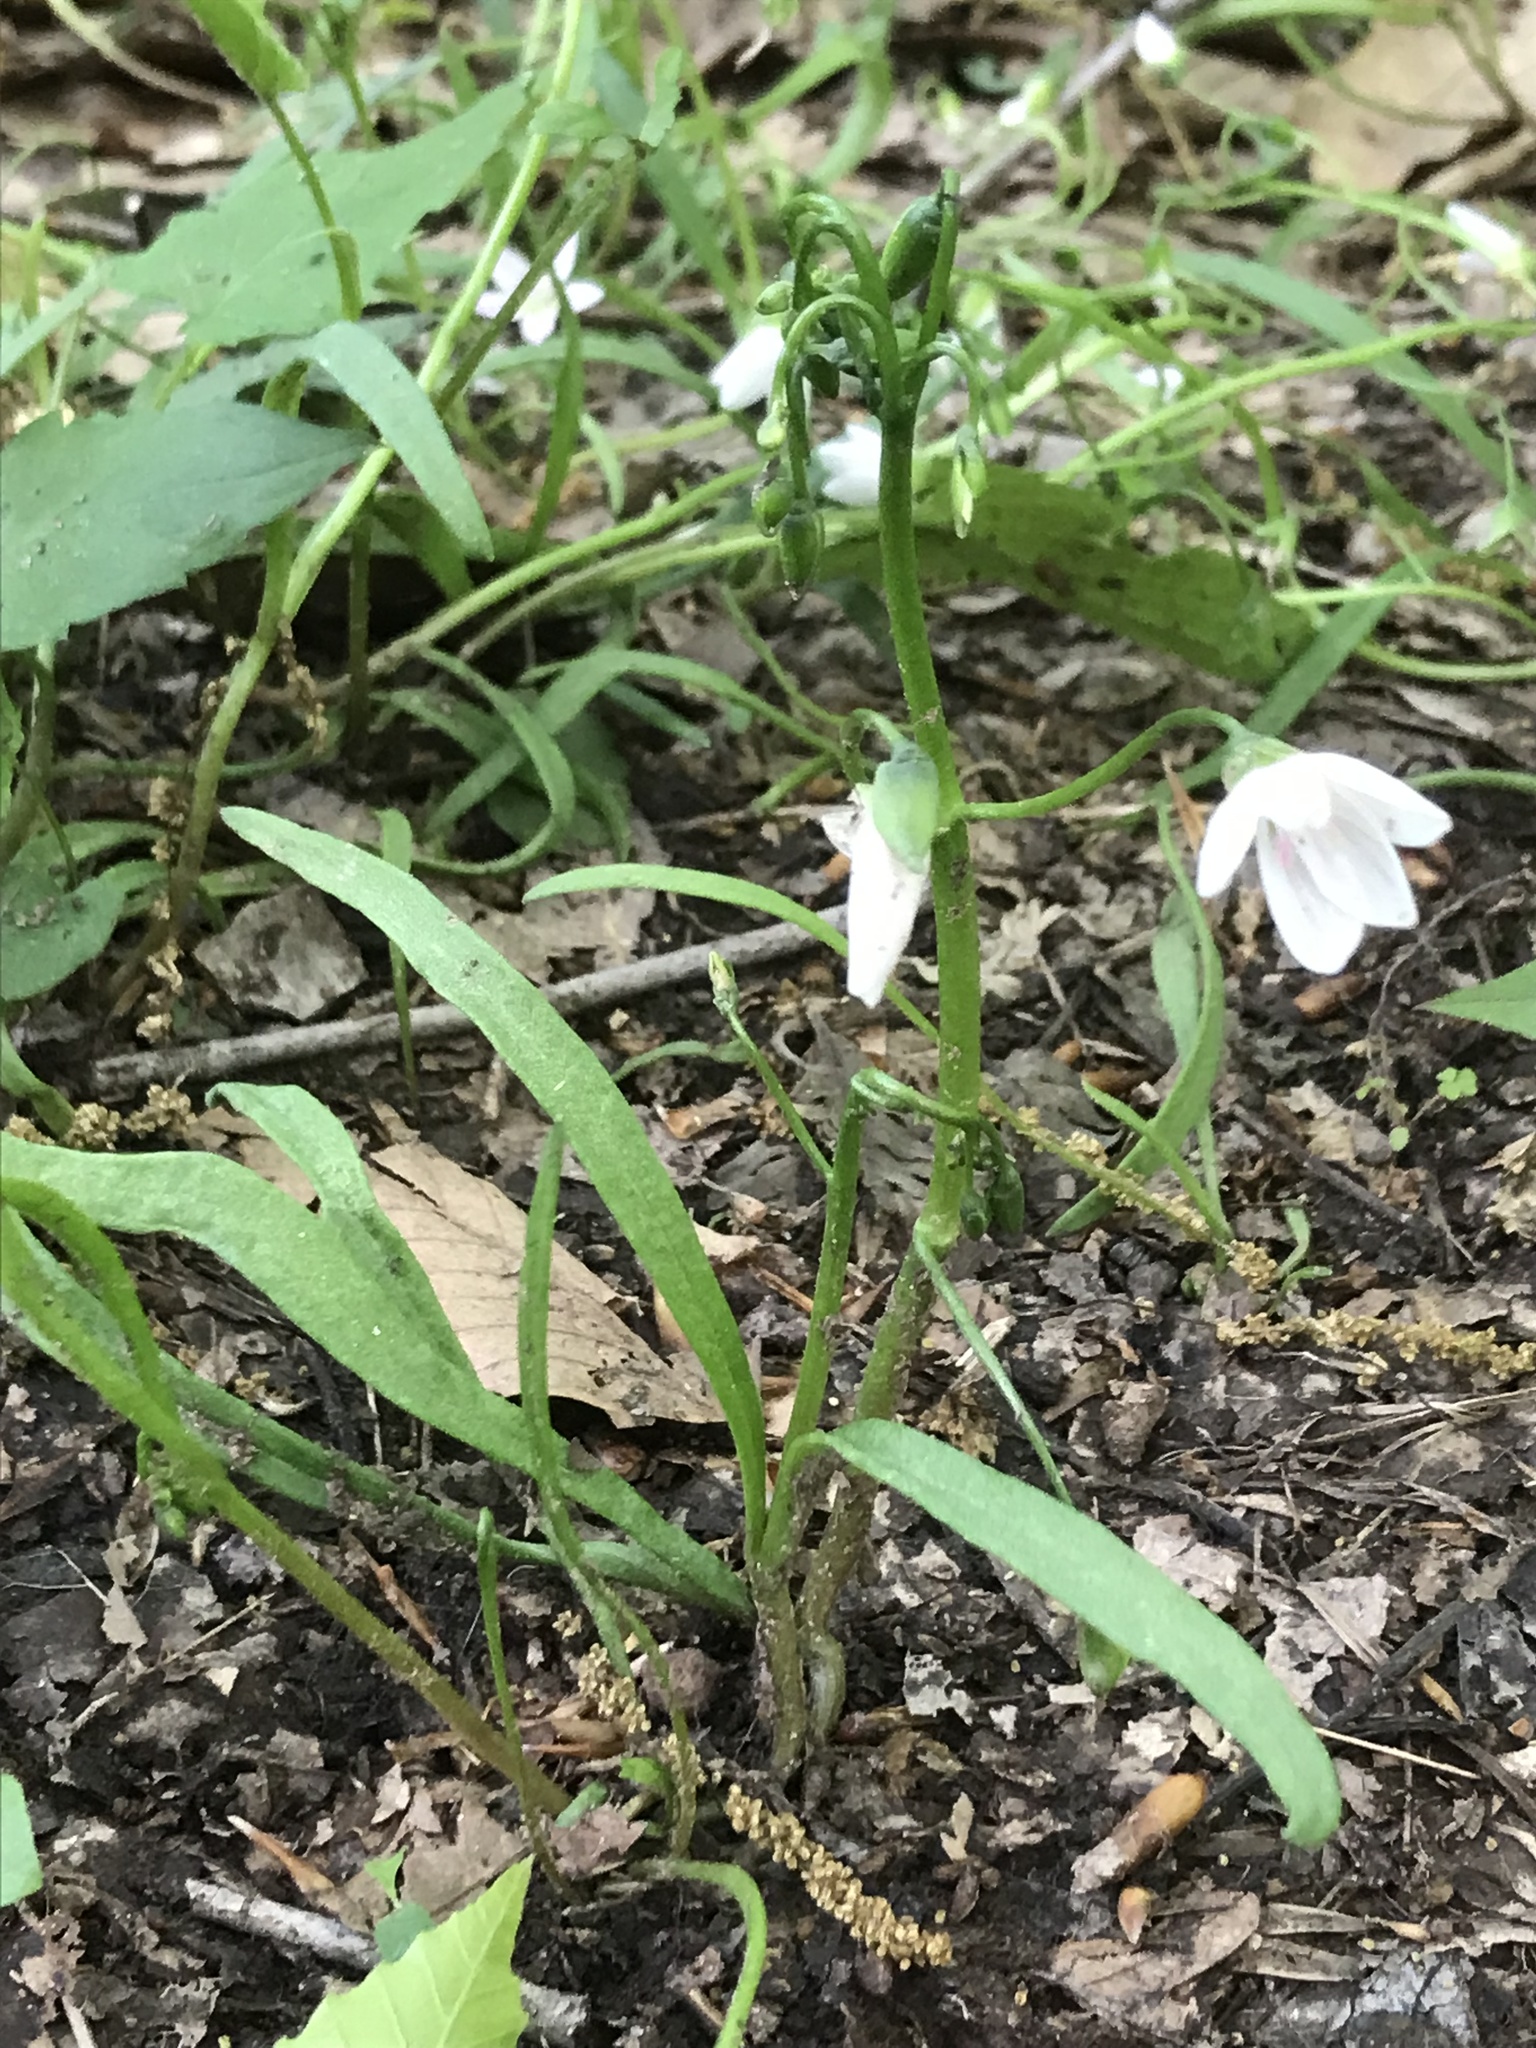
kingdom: Plantae
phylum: Tracheophyta
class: Magnoliopsida
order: Caryophyllales
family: Montiaceae
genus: Claytonia
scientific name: Claytonia virginica
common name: Virginia springbeauty
